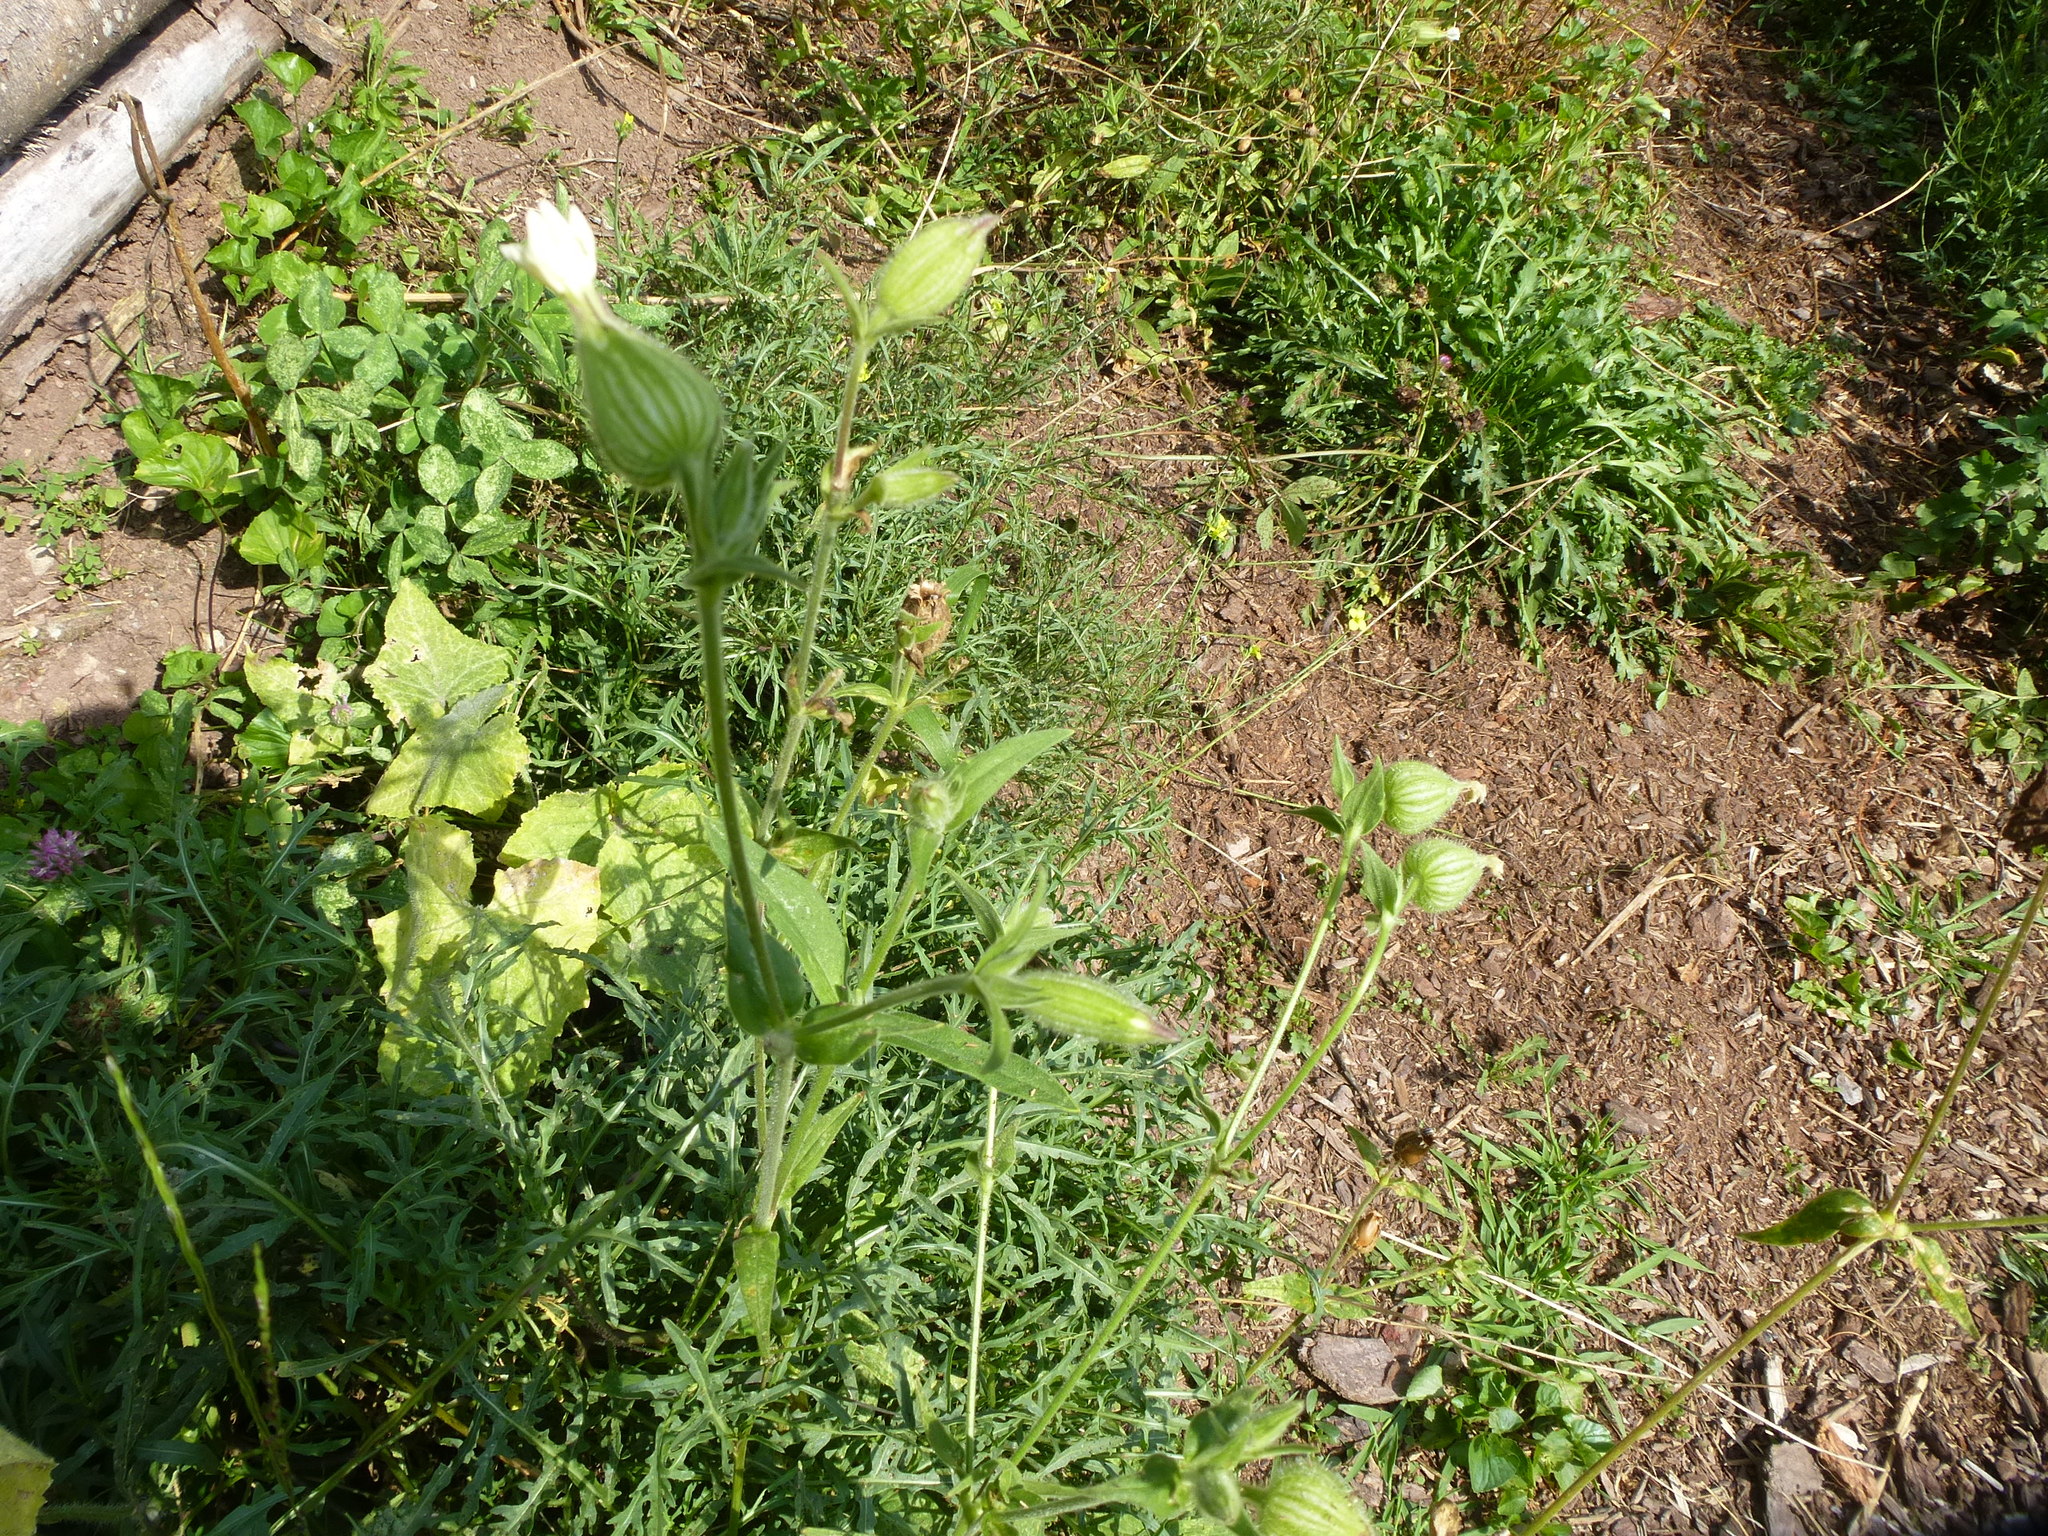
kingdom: Plantae
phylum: Tracheophyta
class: Magnoliopsida
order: Caryophyllales
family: Caryophyllaceae
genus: Silene
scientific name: Silene latifolia
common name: White campion
